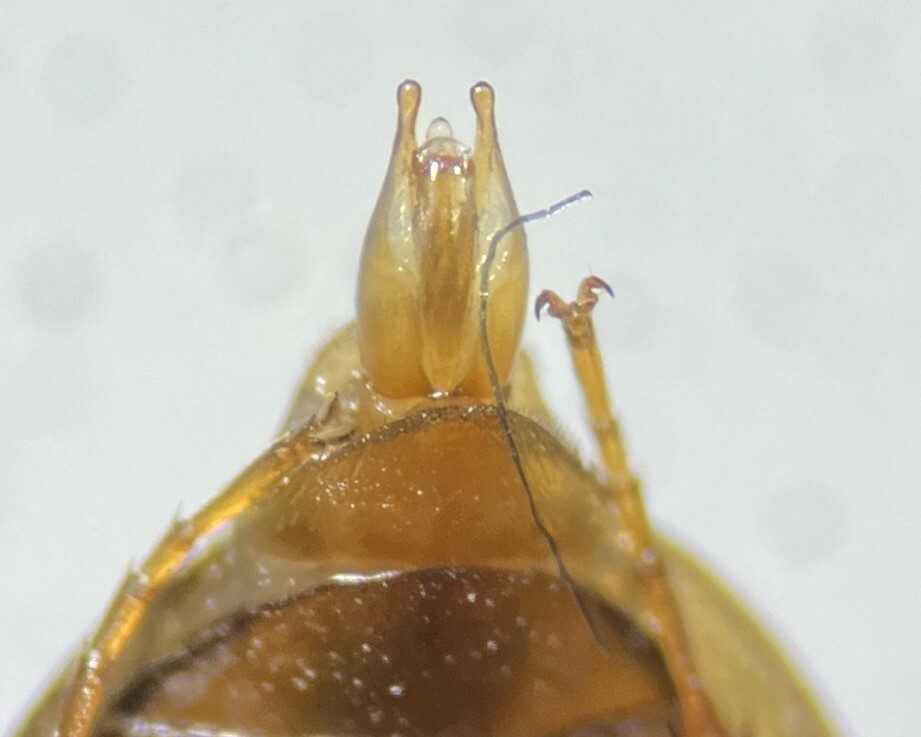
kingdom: Animalia
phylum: Arthropoda
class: Insecta
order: Coleoptera
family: Hydrophilidae
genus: Enochrus
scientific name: Enochrus reflexipennis
